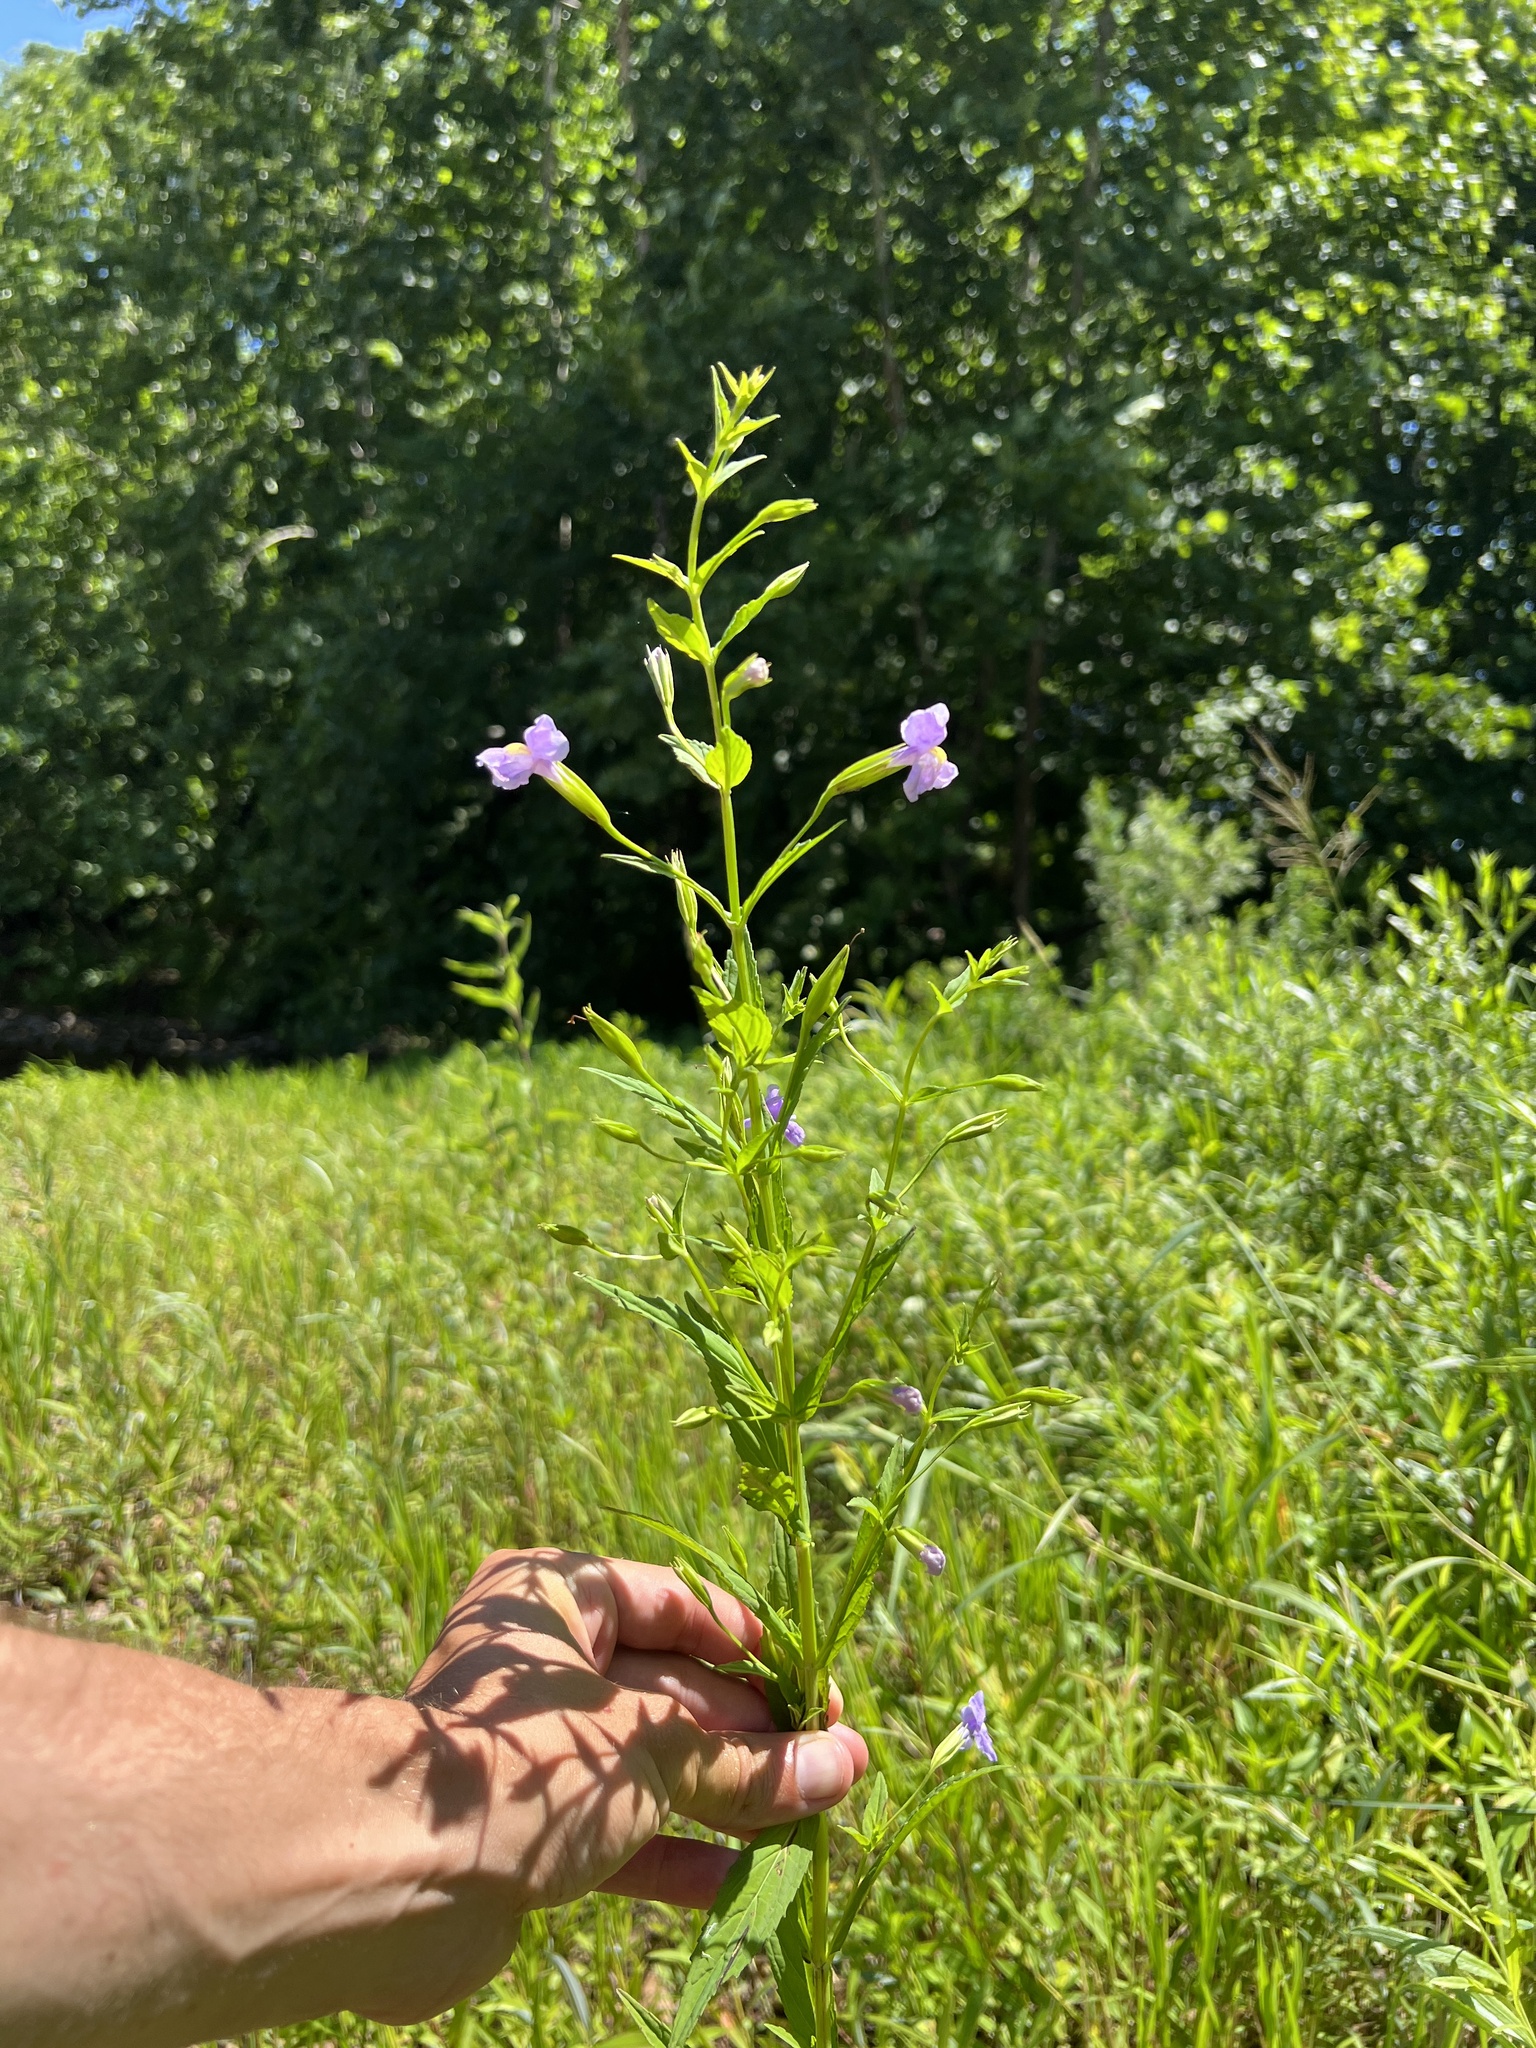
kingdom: Plantae
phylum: Tracheophyta
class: Magnoliopsida
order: Lamiales
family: Phrymaceae
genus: Mimulus
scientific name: Mimulus ringens
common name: Allegheny monkeyflower
